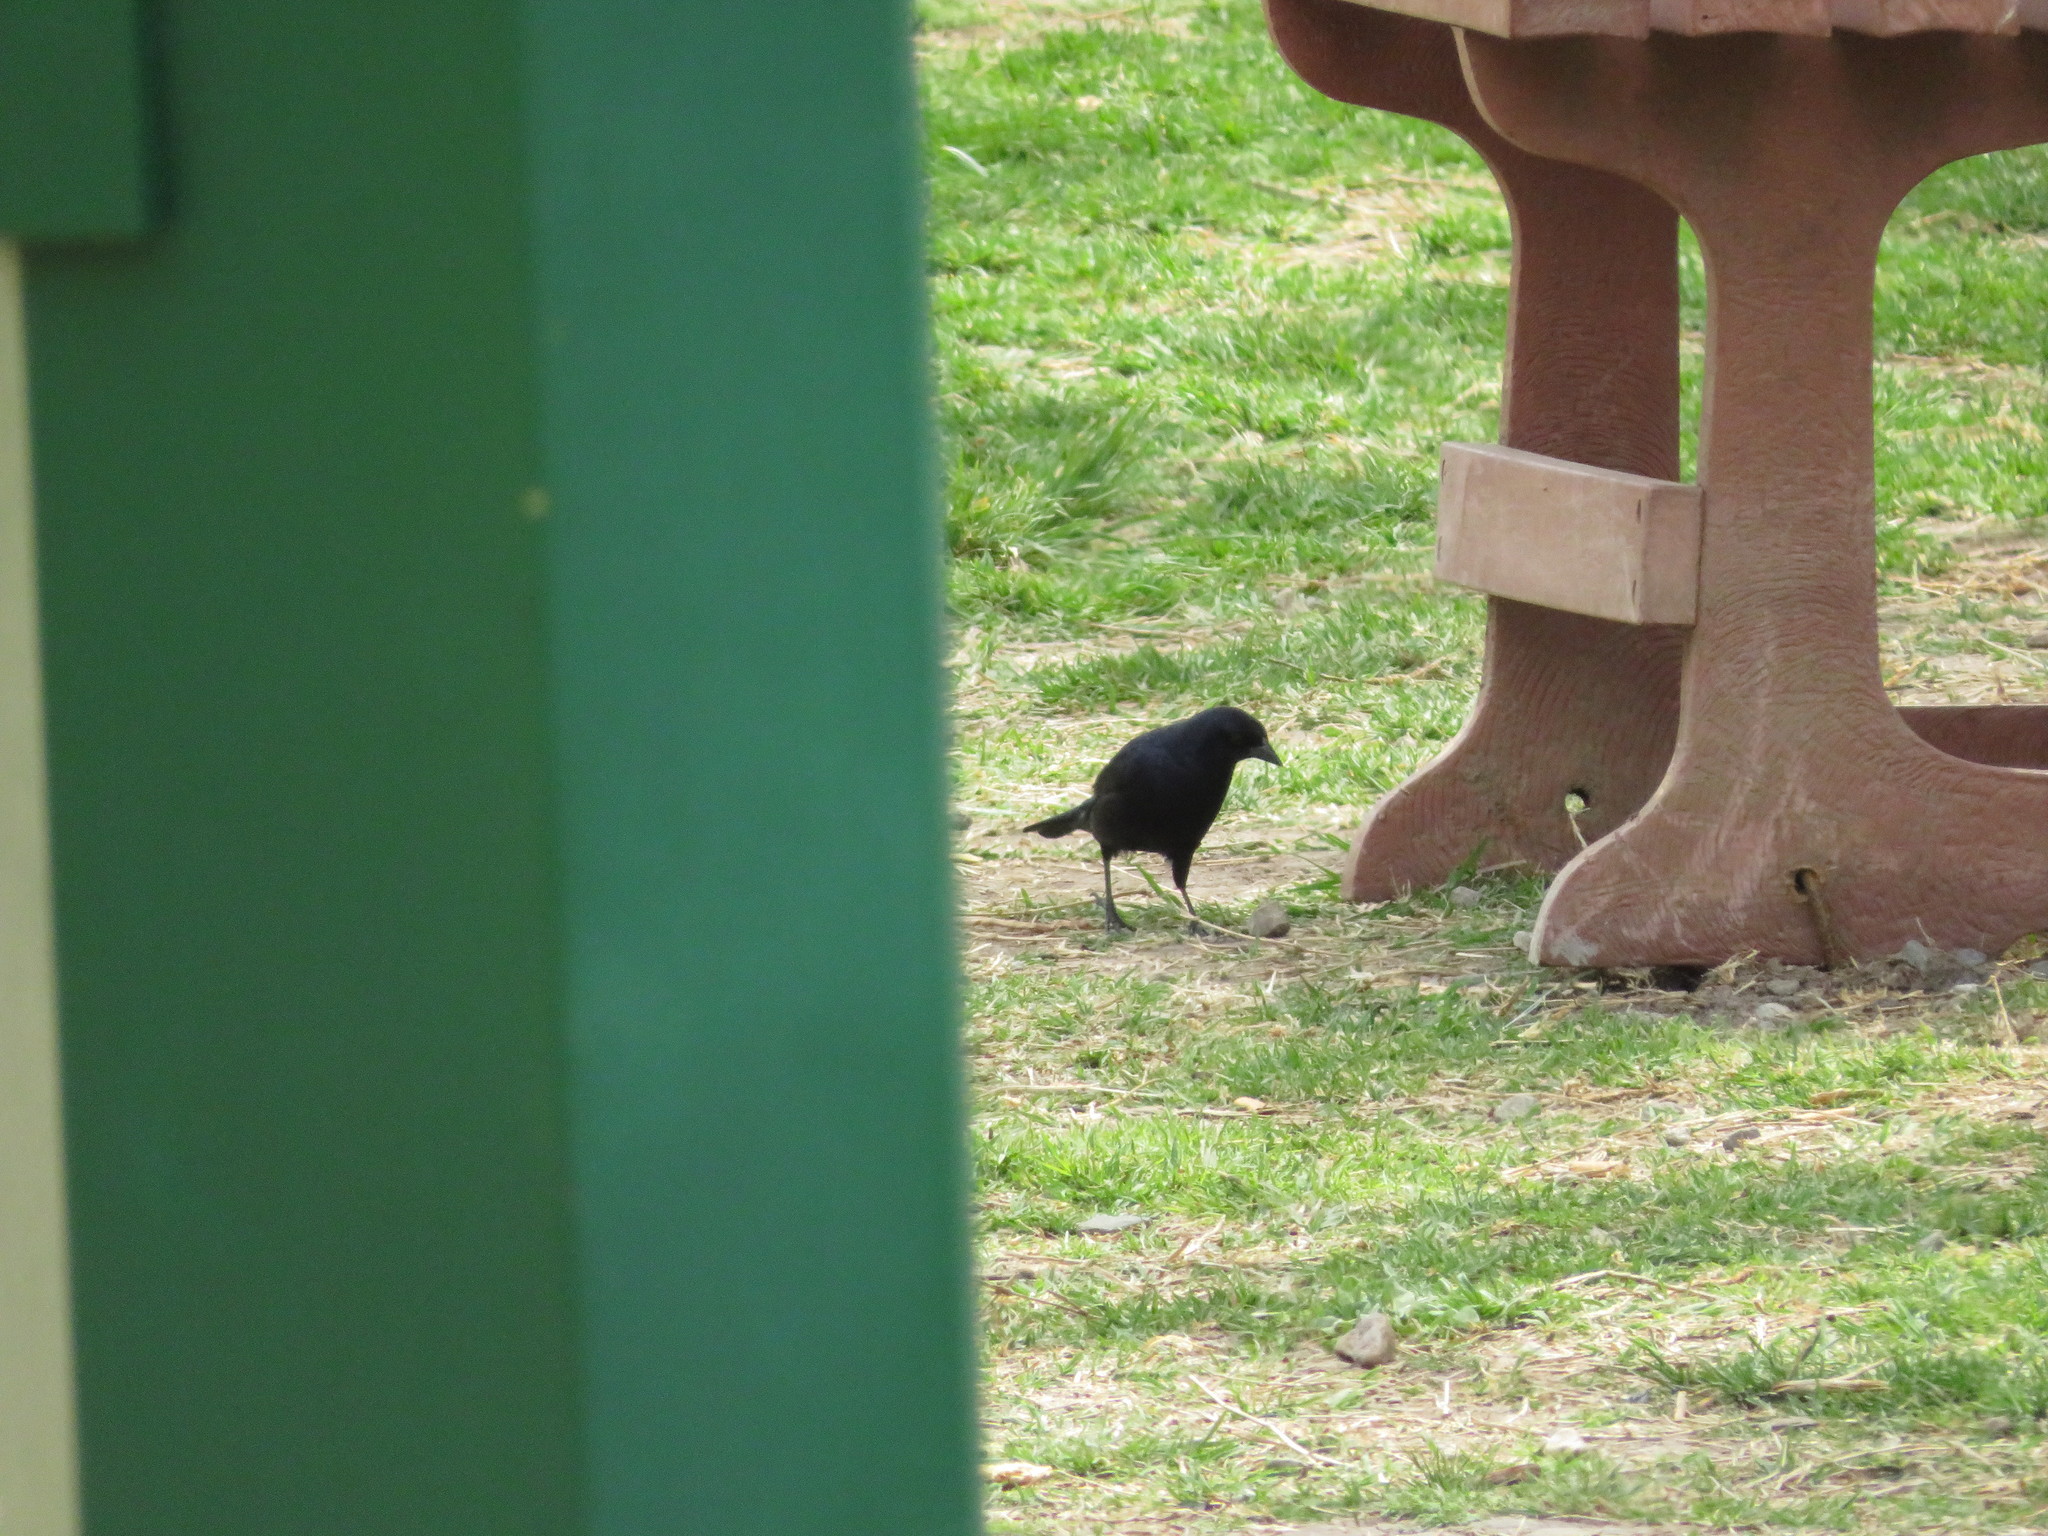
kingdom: Animalia
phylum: Chordata
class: Aves
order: Passeriformes
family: Icteridae
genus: Molothrus
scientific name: Molothrus bonariensis
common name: Shiny cowbird
